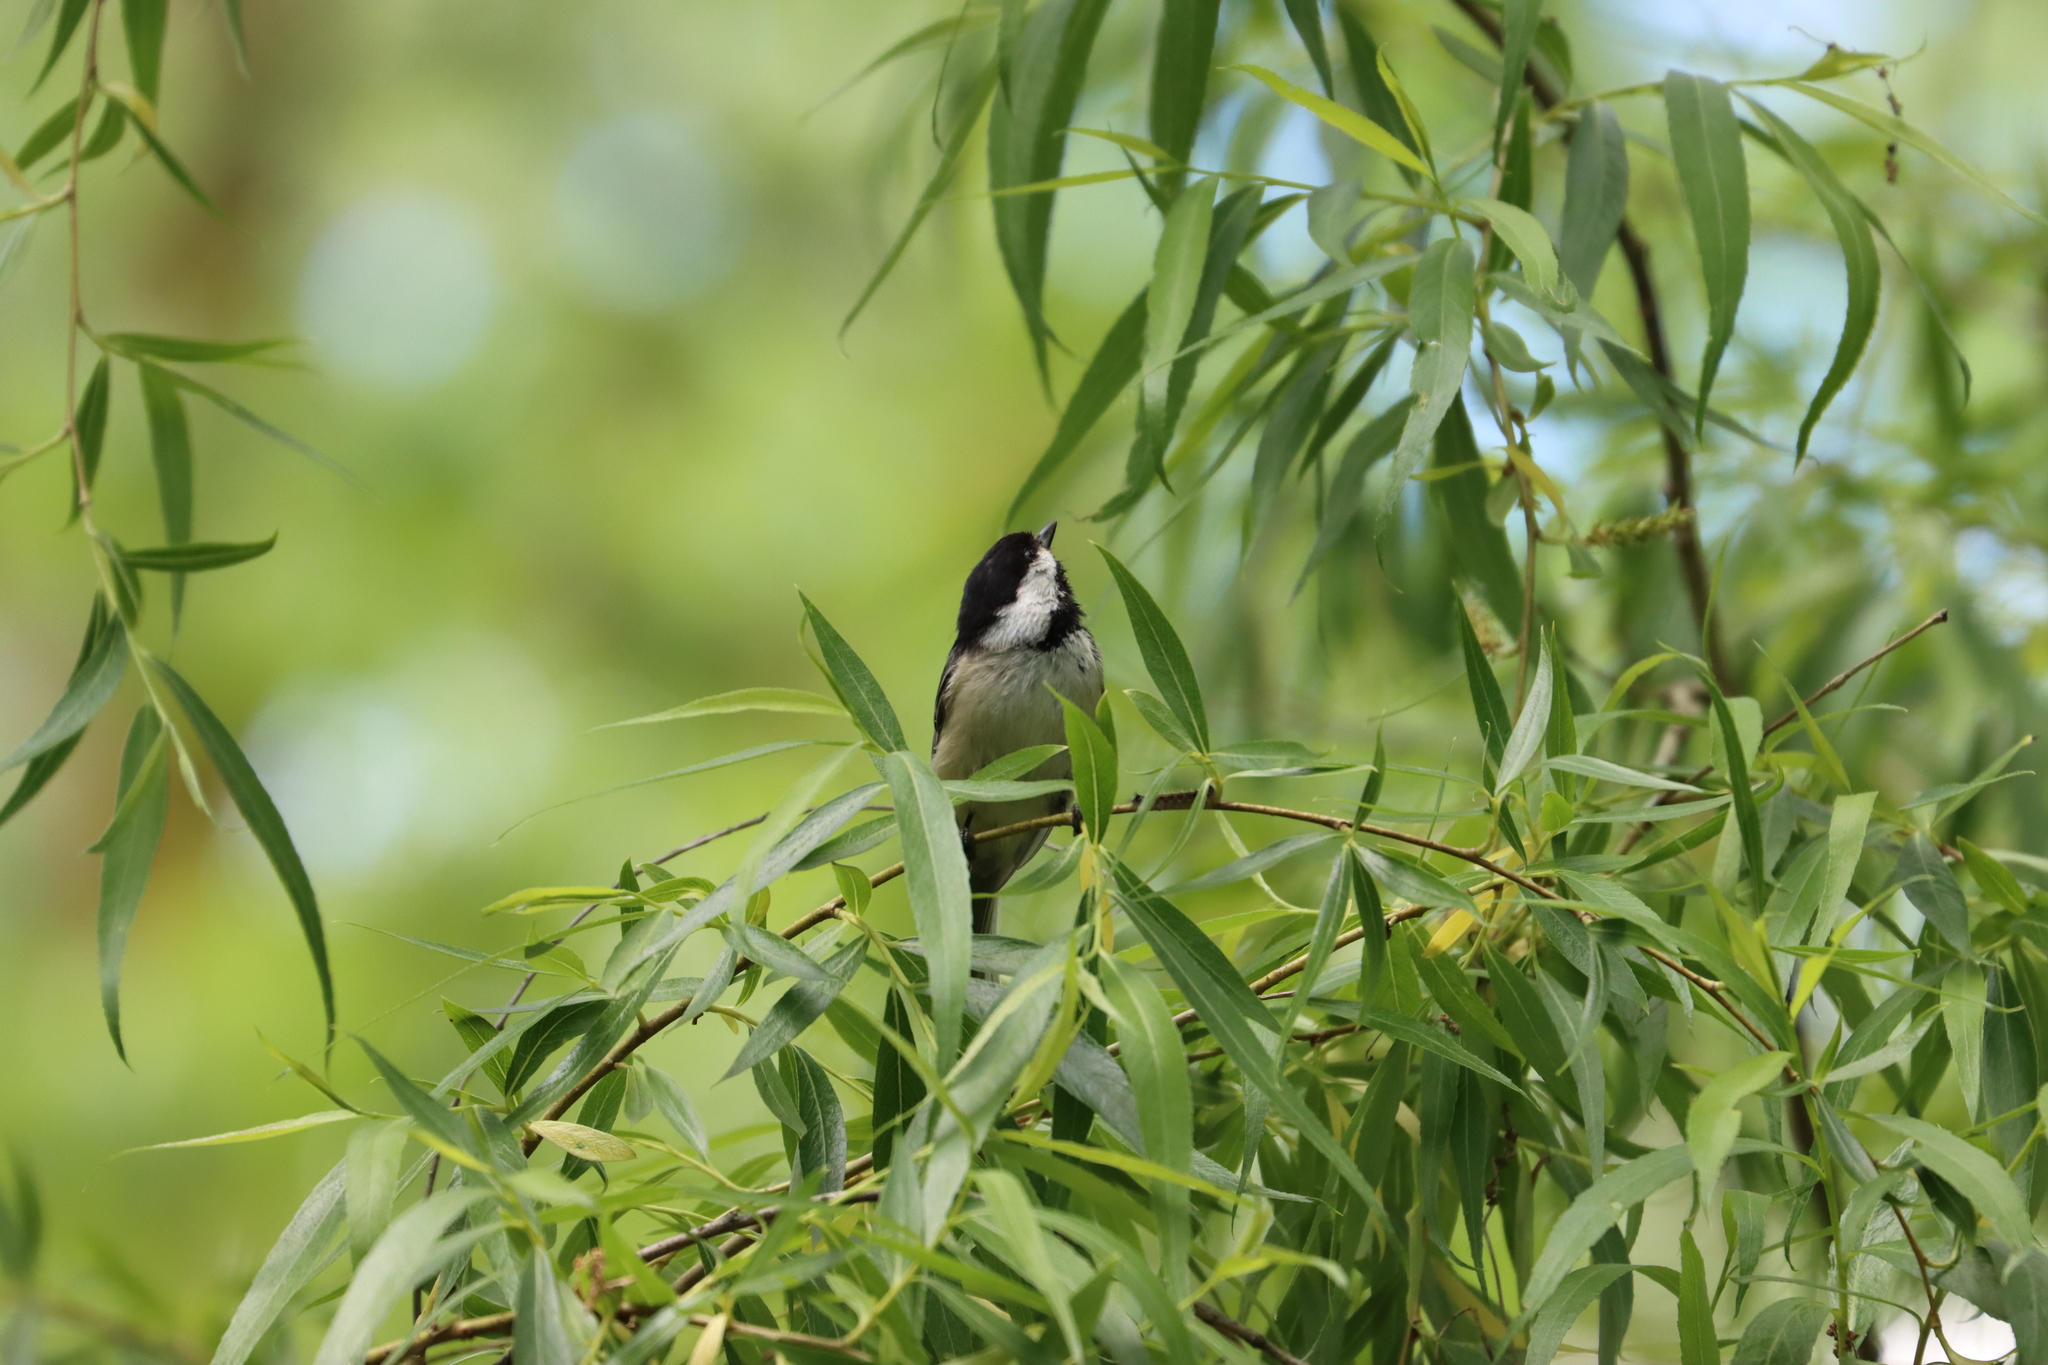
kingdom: Animalia
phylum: Chordata
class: Aves
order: Passeriformes
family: Paridae
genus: Poecile
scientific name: Poecile atricapillus
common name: Black-capped chickadee
